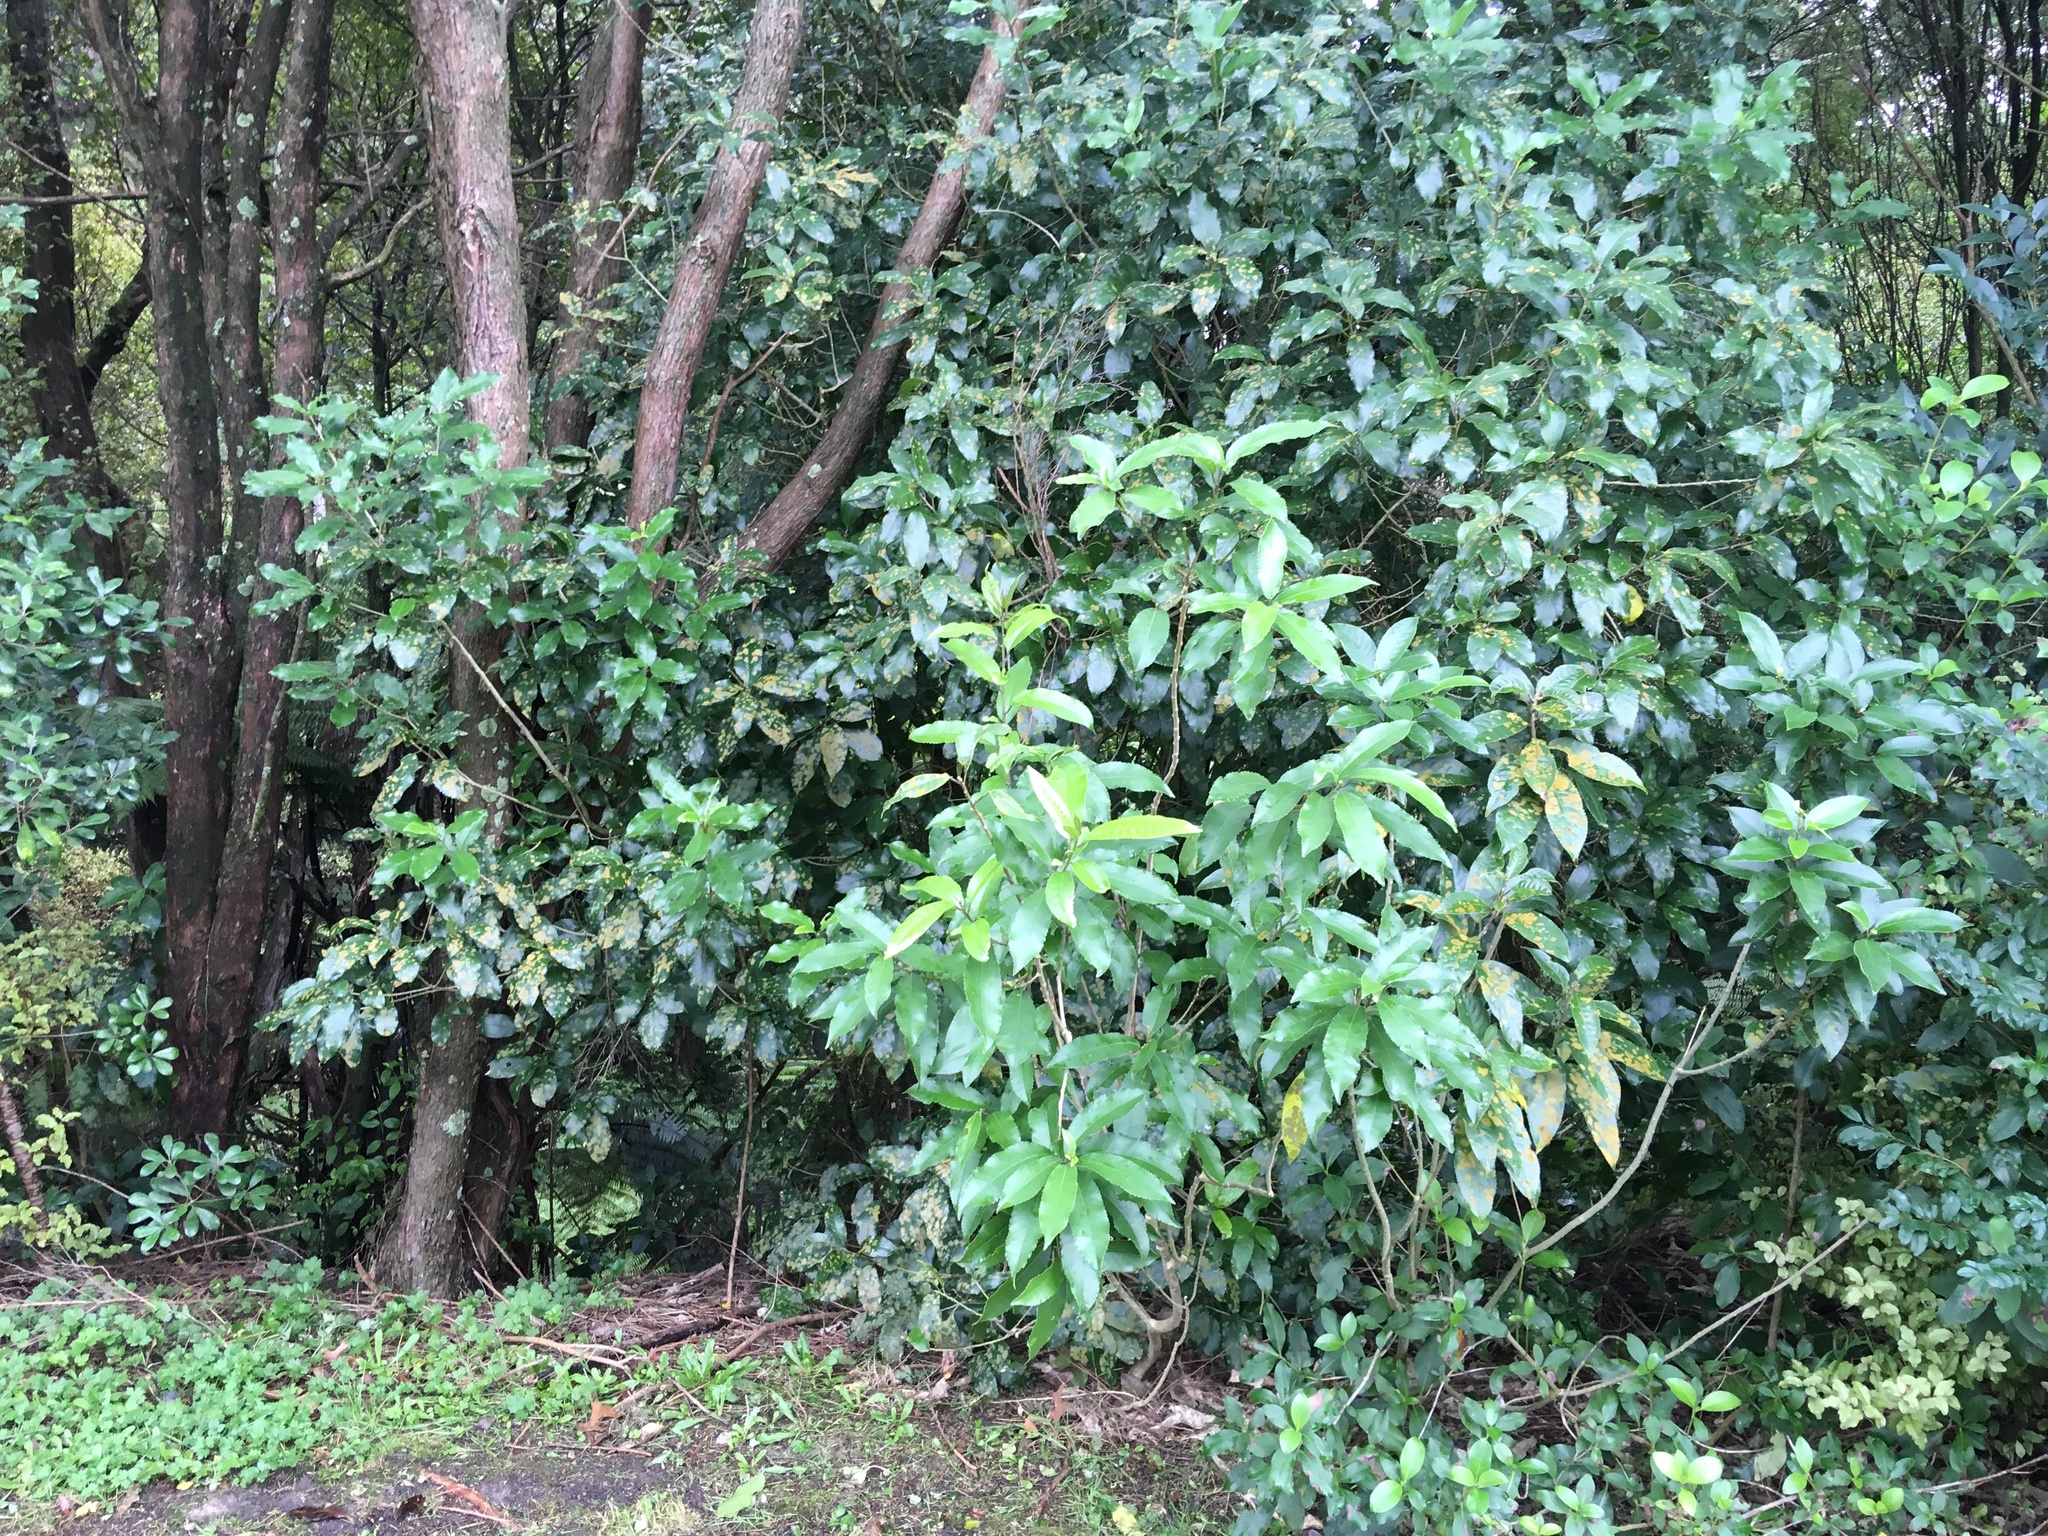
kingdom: Plantae
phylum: Tracheophyta
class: Magnoliopsida
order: Malpighiales
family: Violaceae
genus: Melicytus
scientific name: Melicytus ramiflorus
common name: Mahoe
